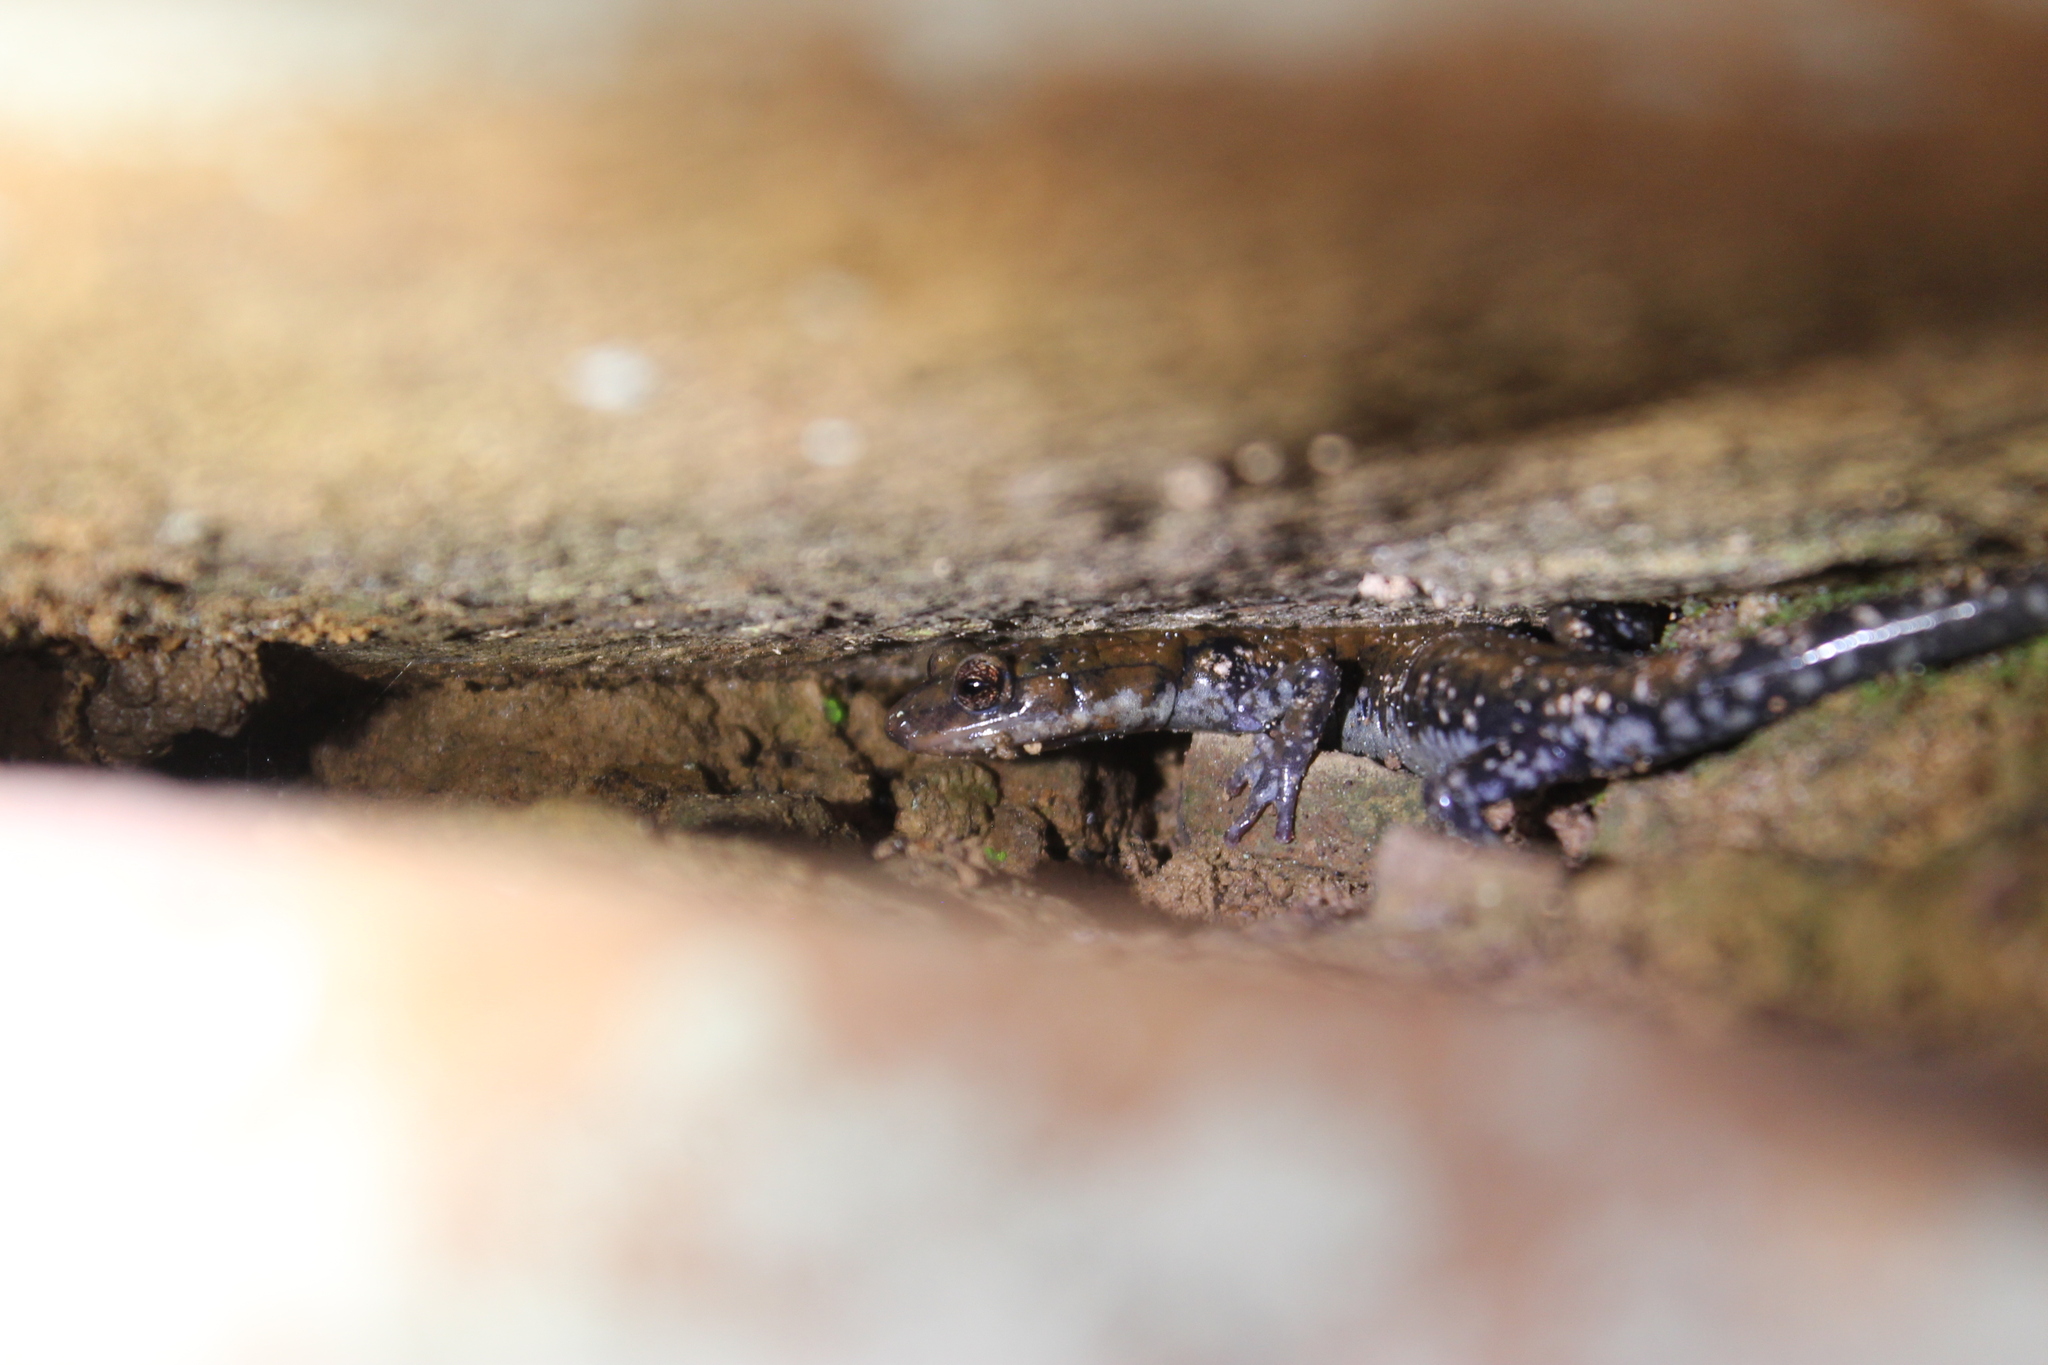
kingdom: Animalia
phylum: Chordata
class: Amphibia
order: Caudata
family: Plethodontidae
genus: Plethodon
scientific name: Plethodon petraeus
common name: Pigeon mountain salamander
